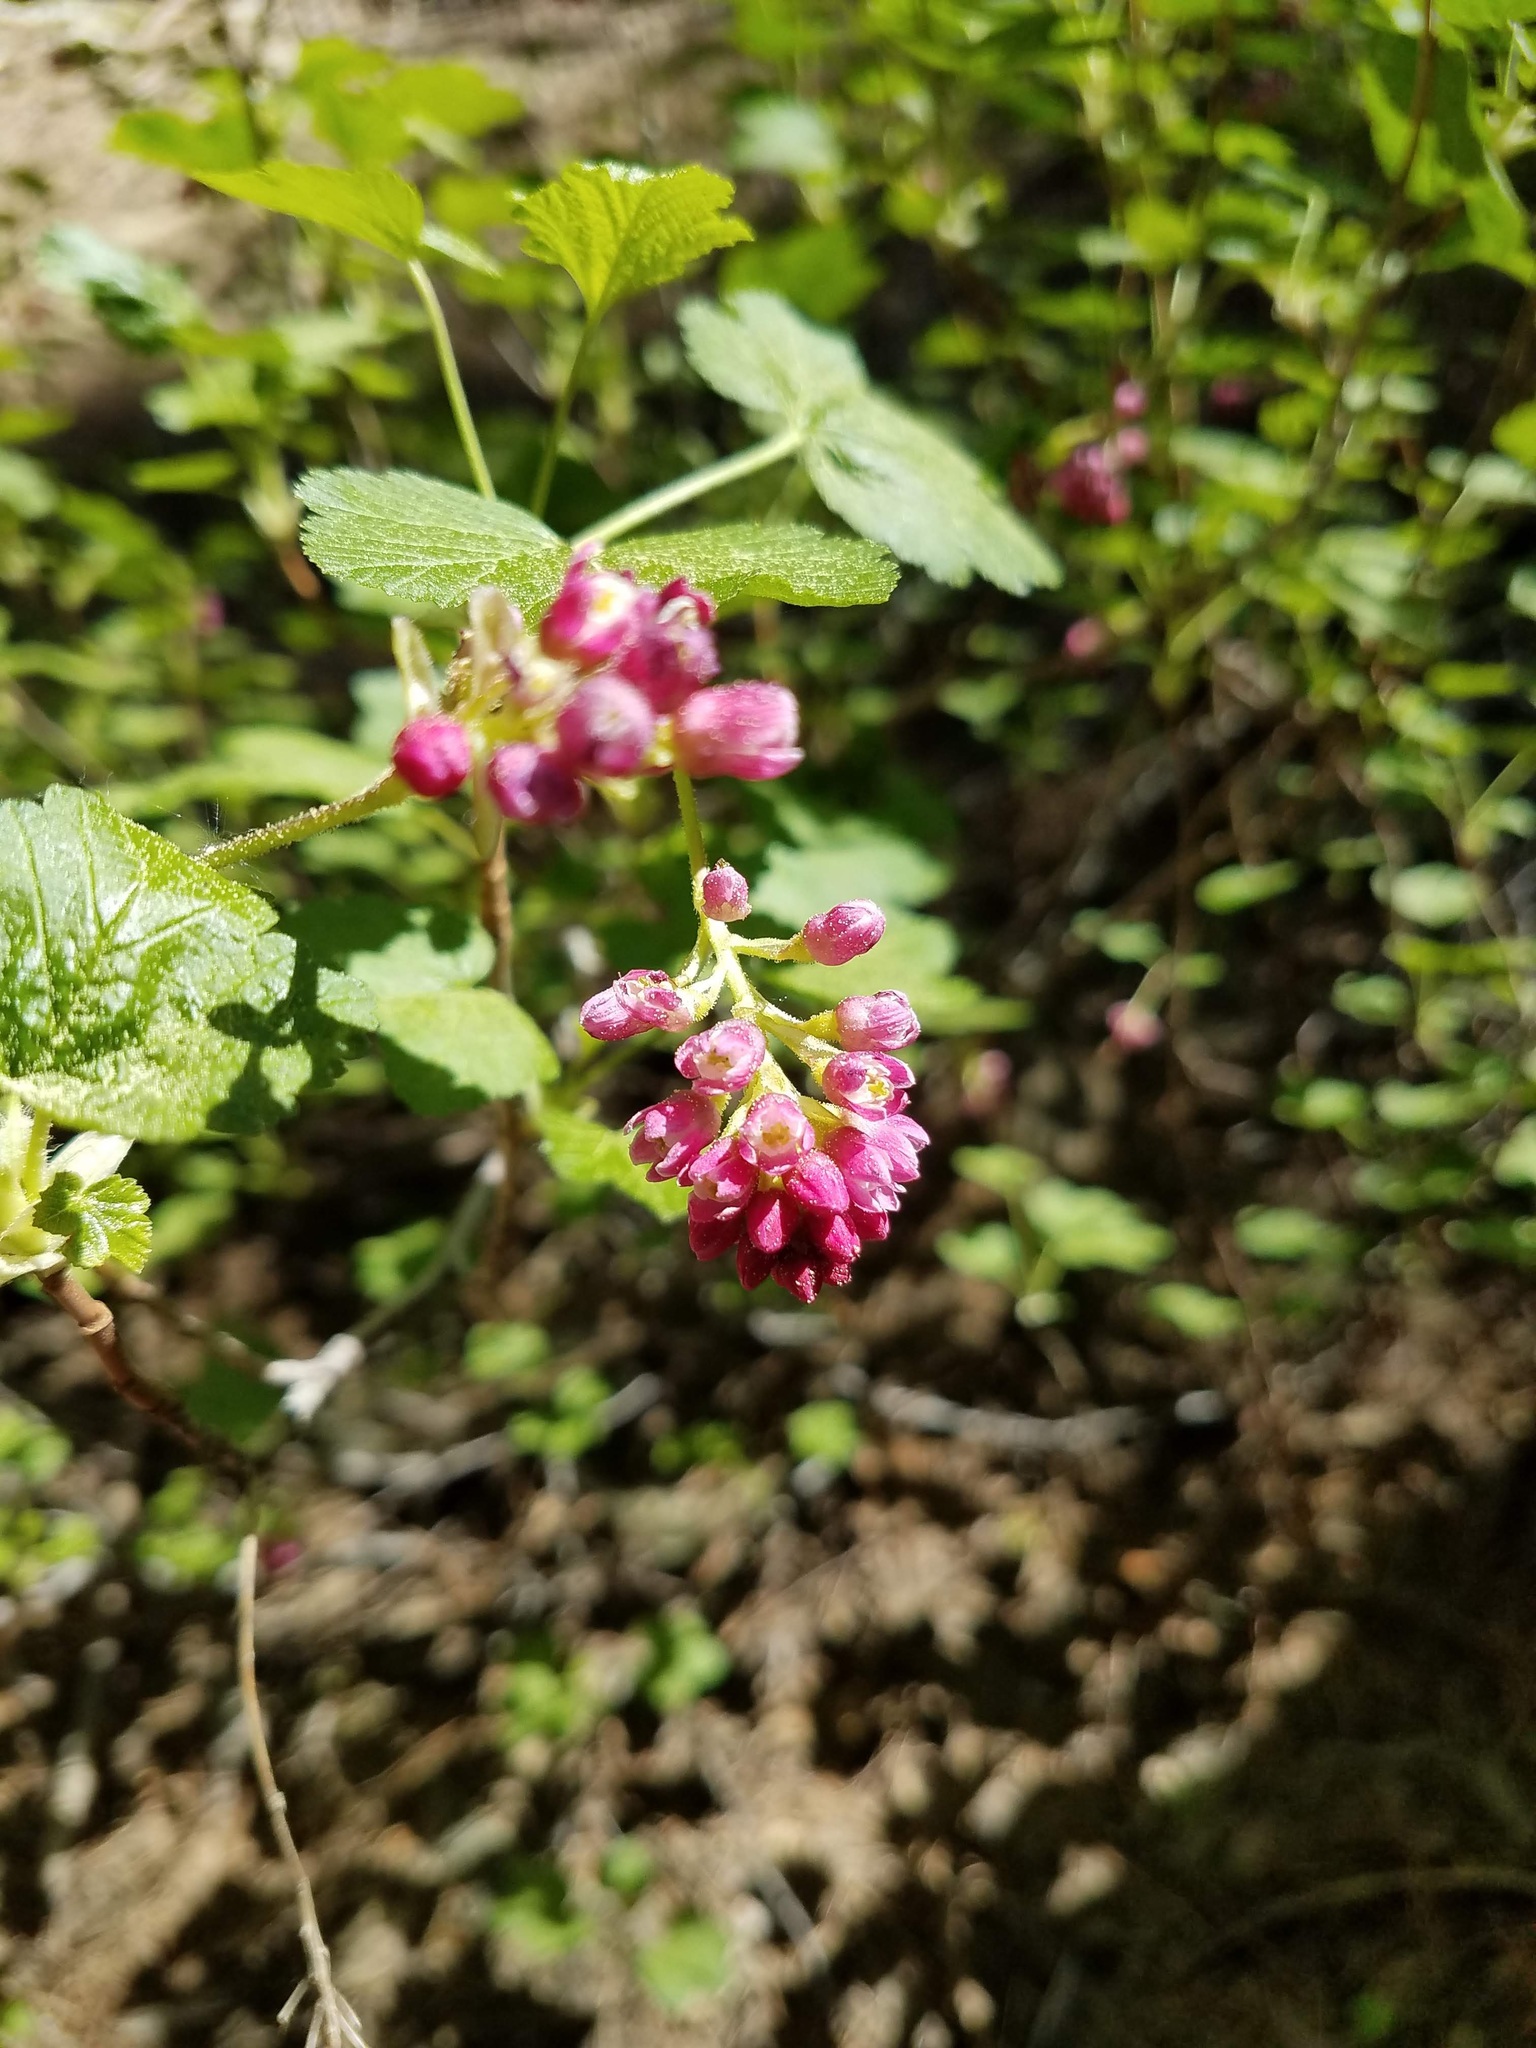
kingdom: Plantae
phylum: Tracheophyta
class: Magnoliopsida
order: Saxifragales
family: Grossulariaceae
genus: Ribes
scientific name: Ribes nevadense
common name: Mountain pink currant
